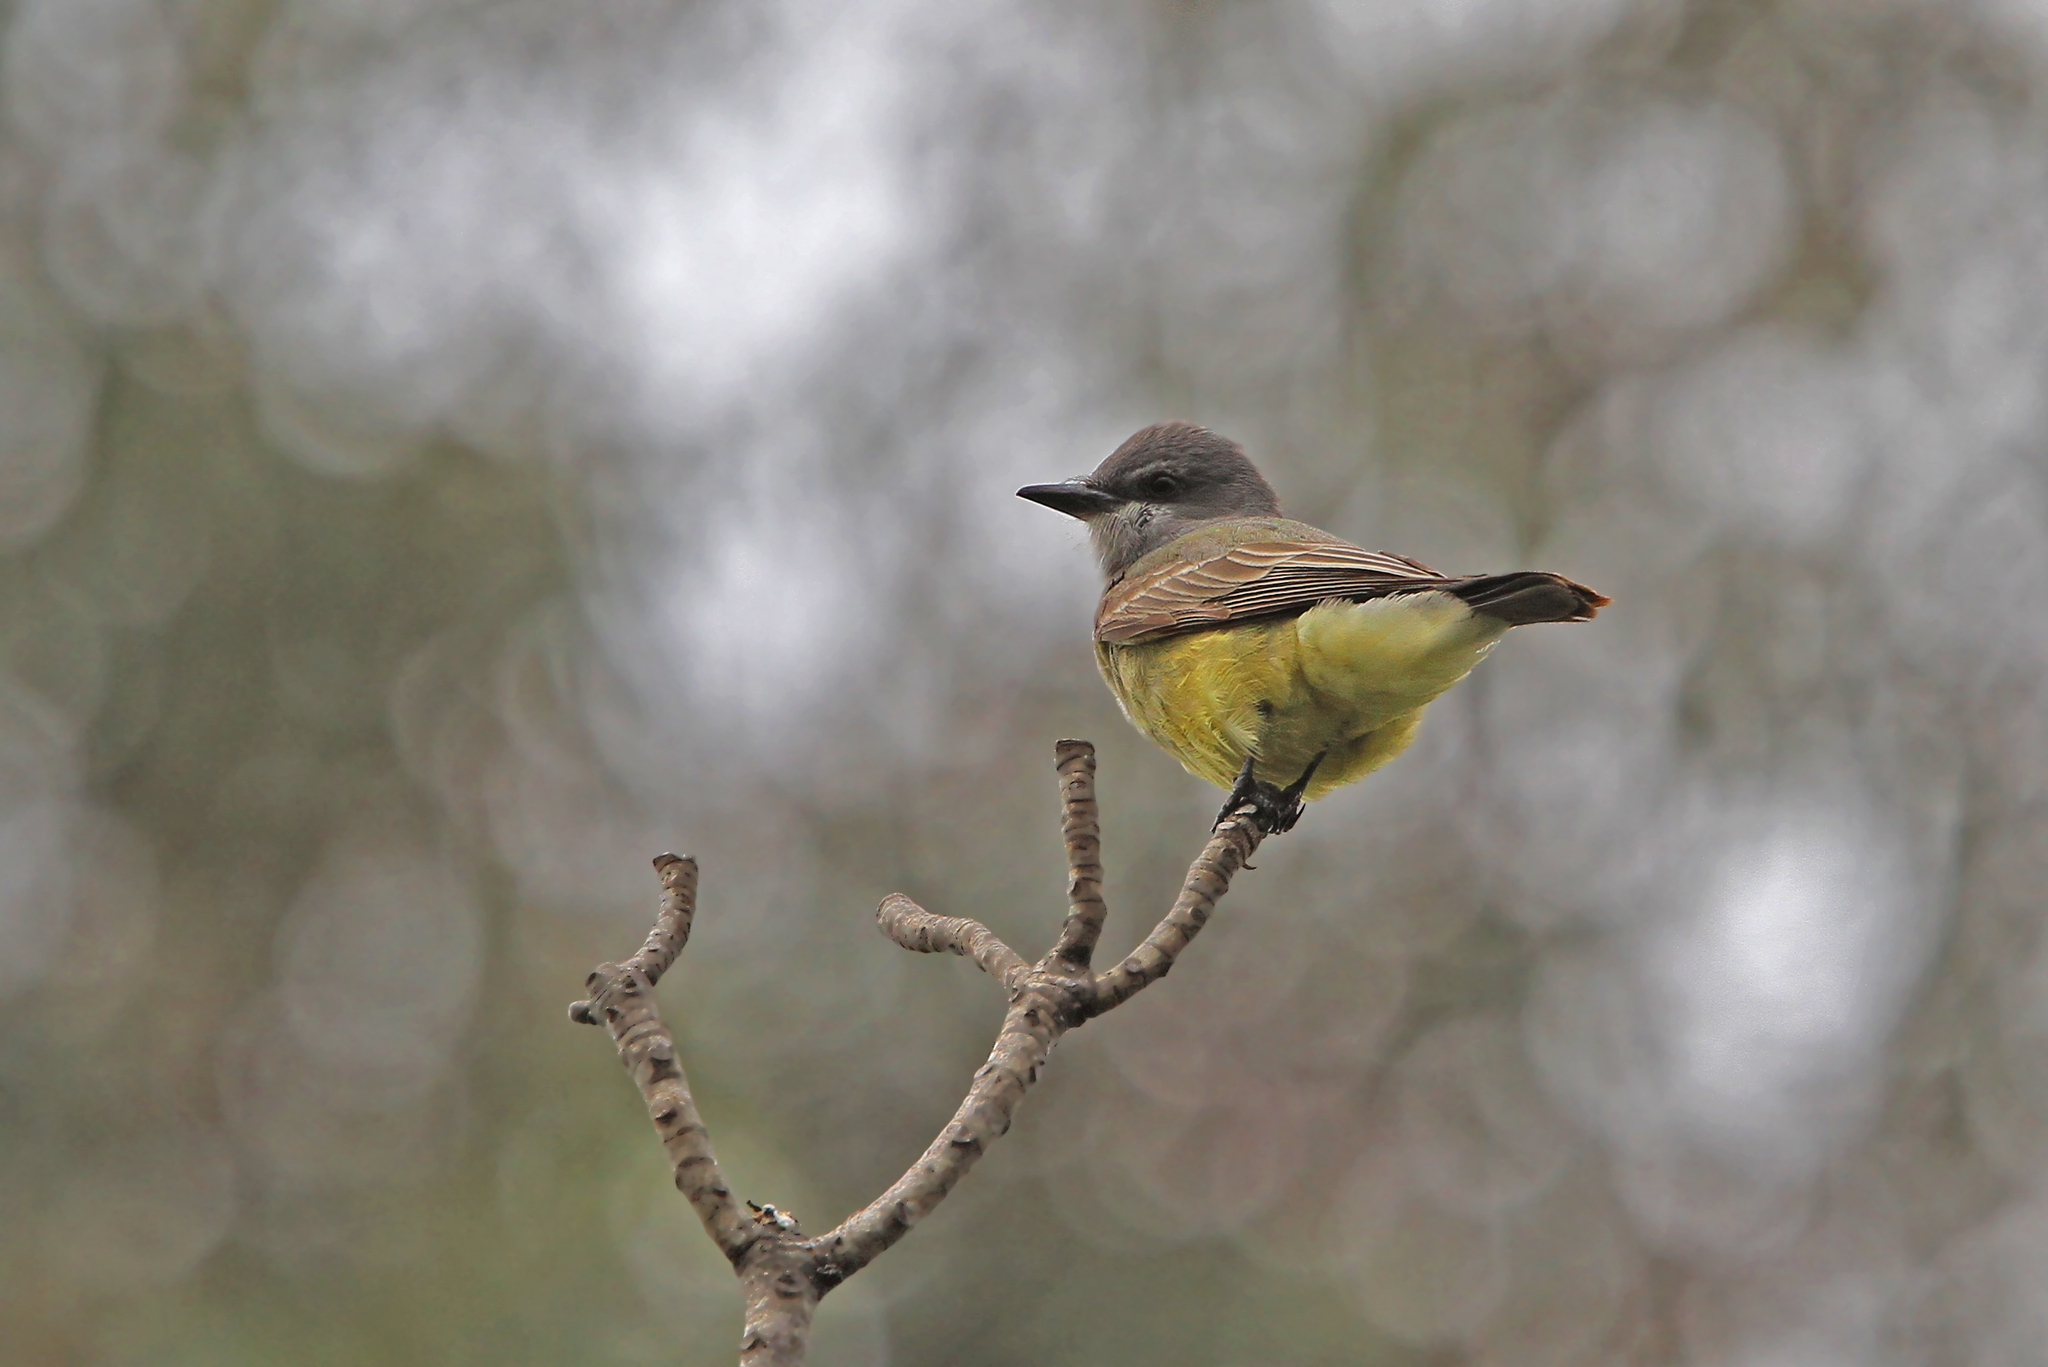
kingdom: Animalia
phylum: Chordata
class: Aves
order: Passeriformes
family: Tyrannidae
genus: Tyrannus
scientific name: Tyrannus vociferans
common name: Cassin's kingbird
